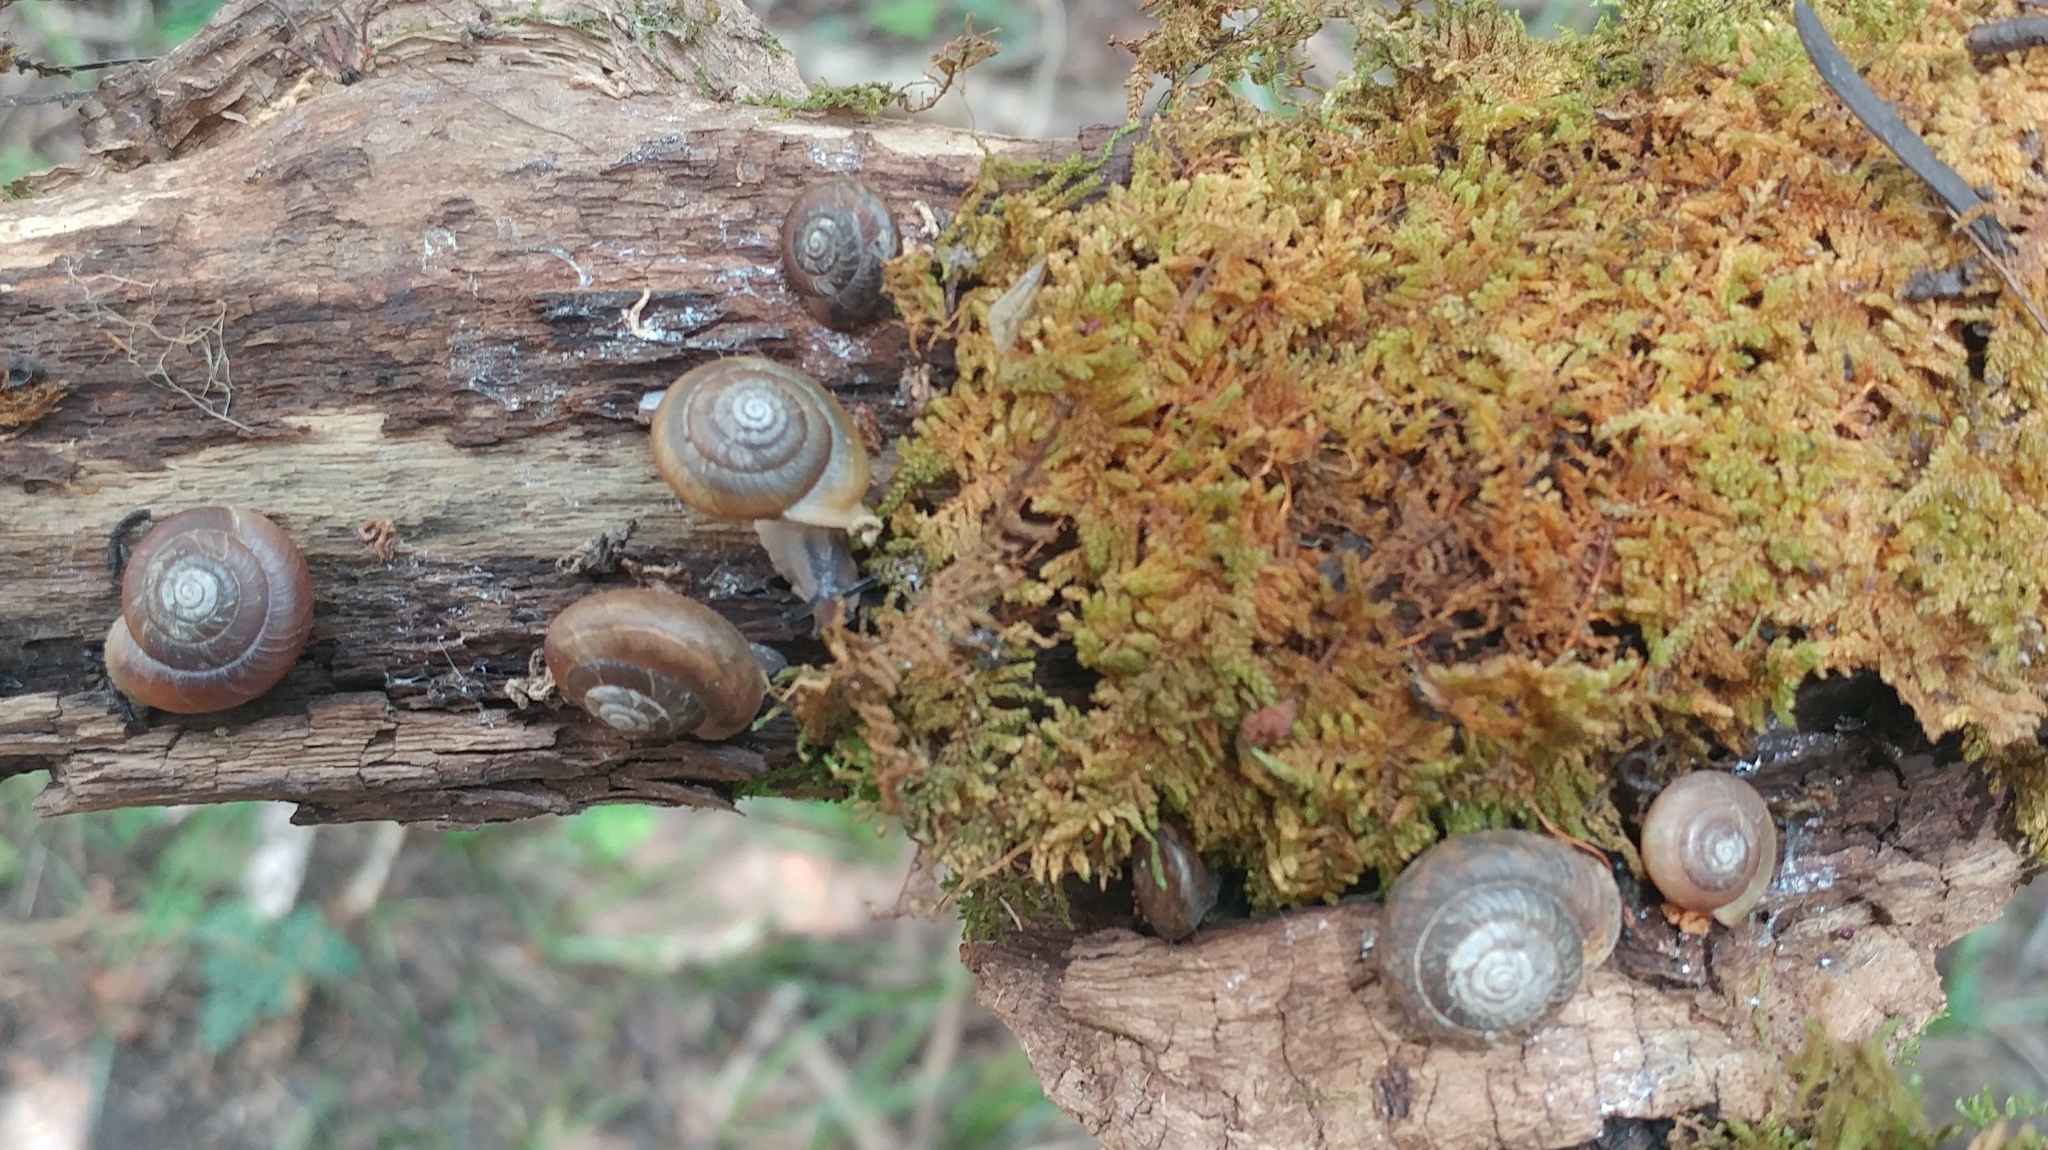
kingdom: Animalia
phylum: Mollusca
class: Gastropoda
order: Stylommatophora
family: Polygyridae
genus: Ashmunella
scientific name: Ashmunella rhyssa
